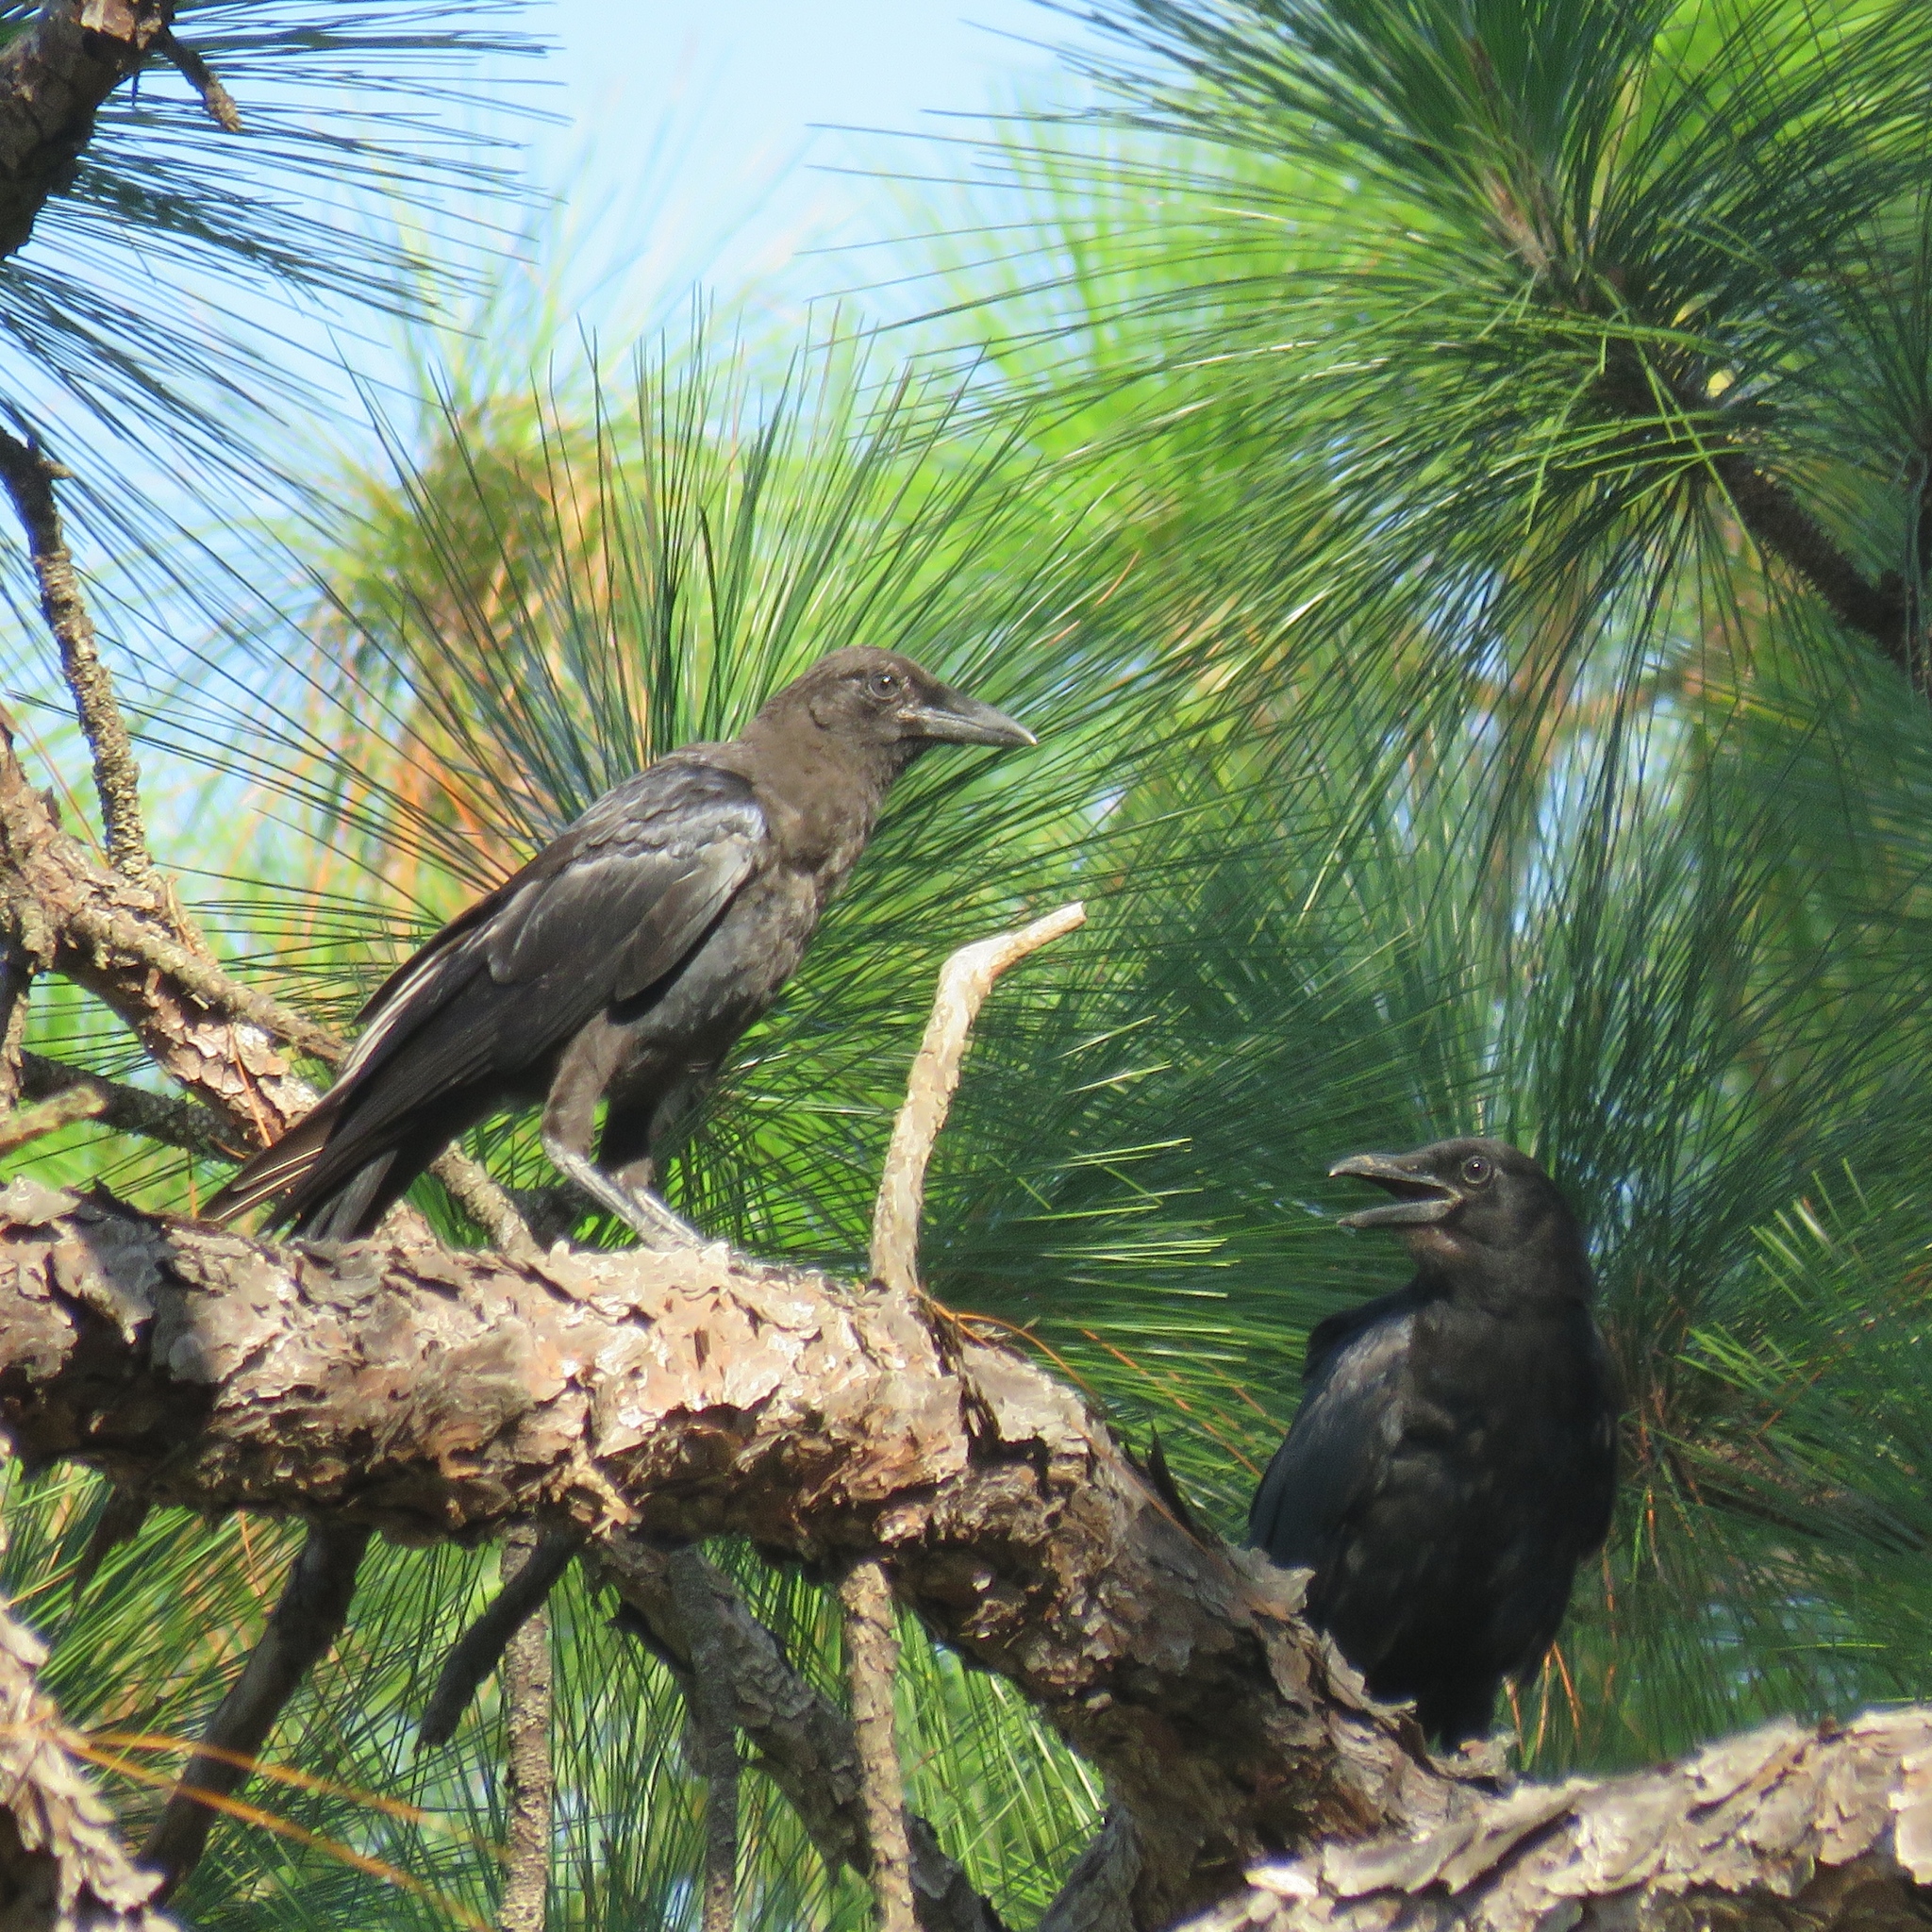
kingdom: Animalia
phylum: Chordata
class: Aves
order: Passeriformes
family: Corvidae
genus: Corvus
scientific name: Corvus brachyrhynchos
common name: American crow
